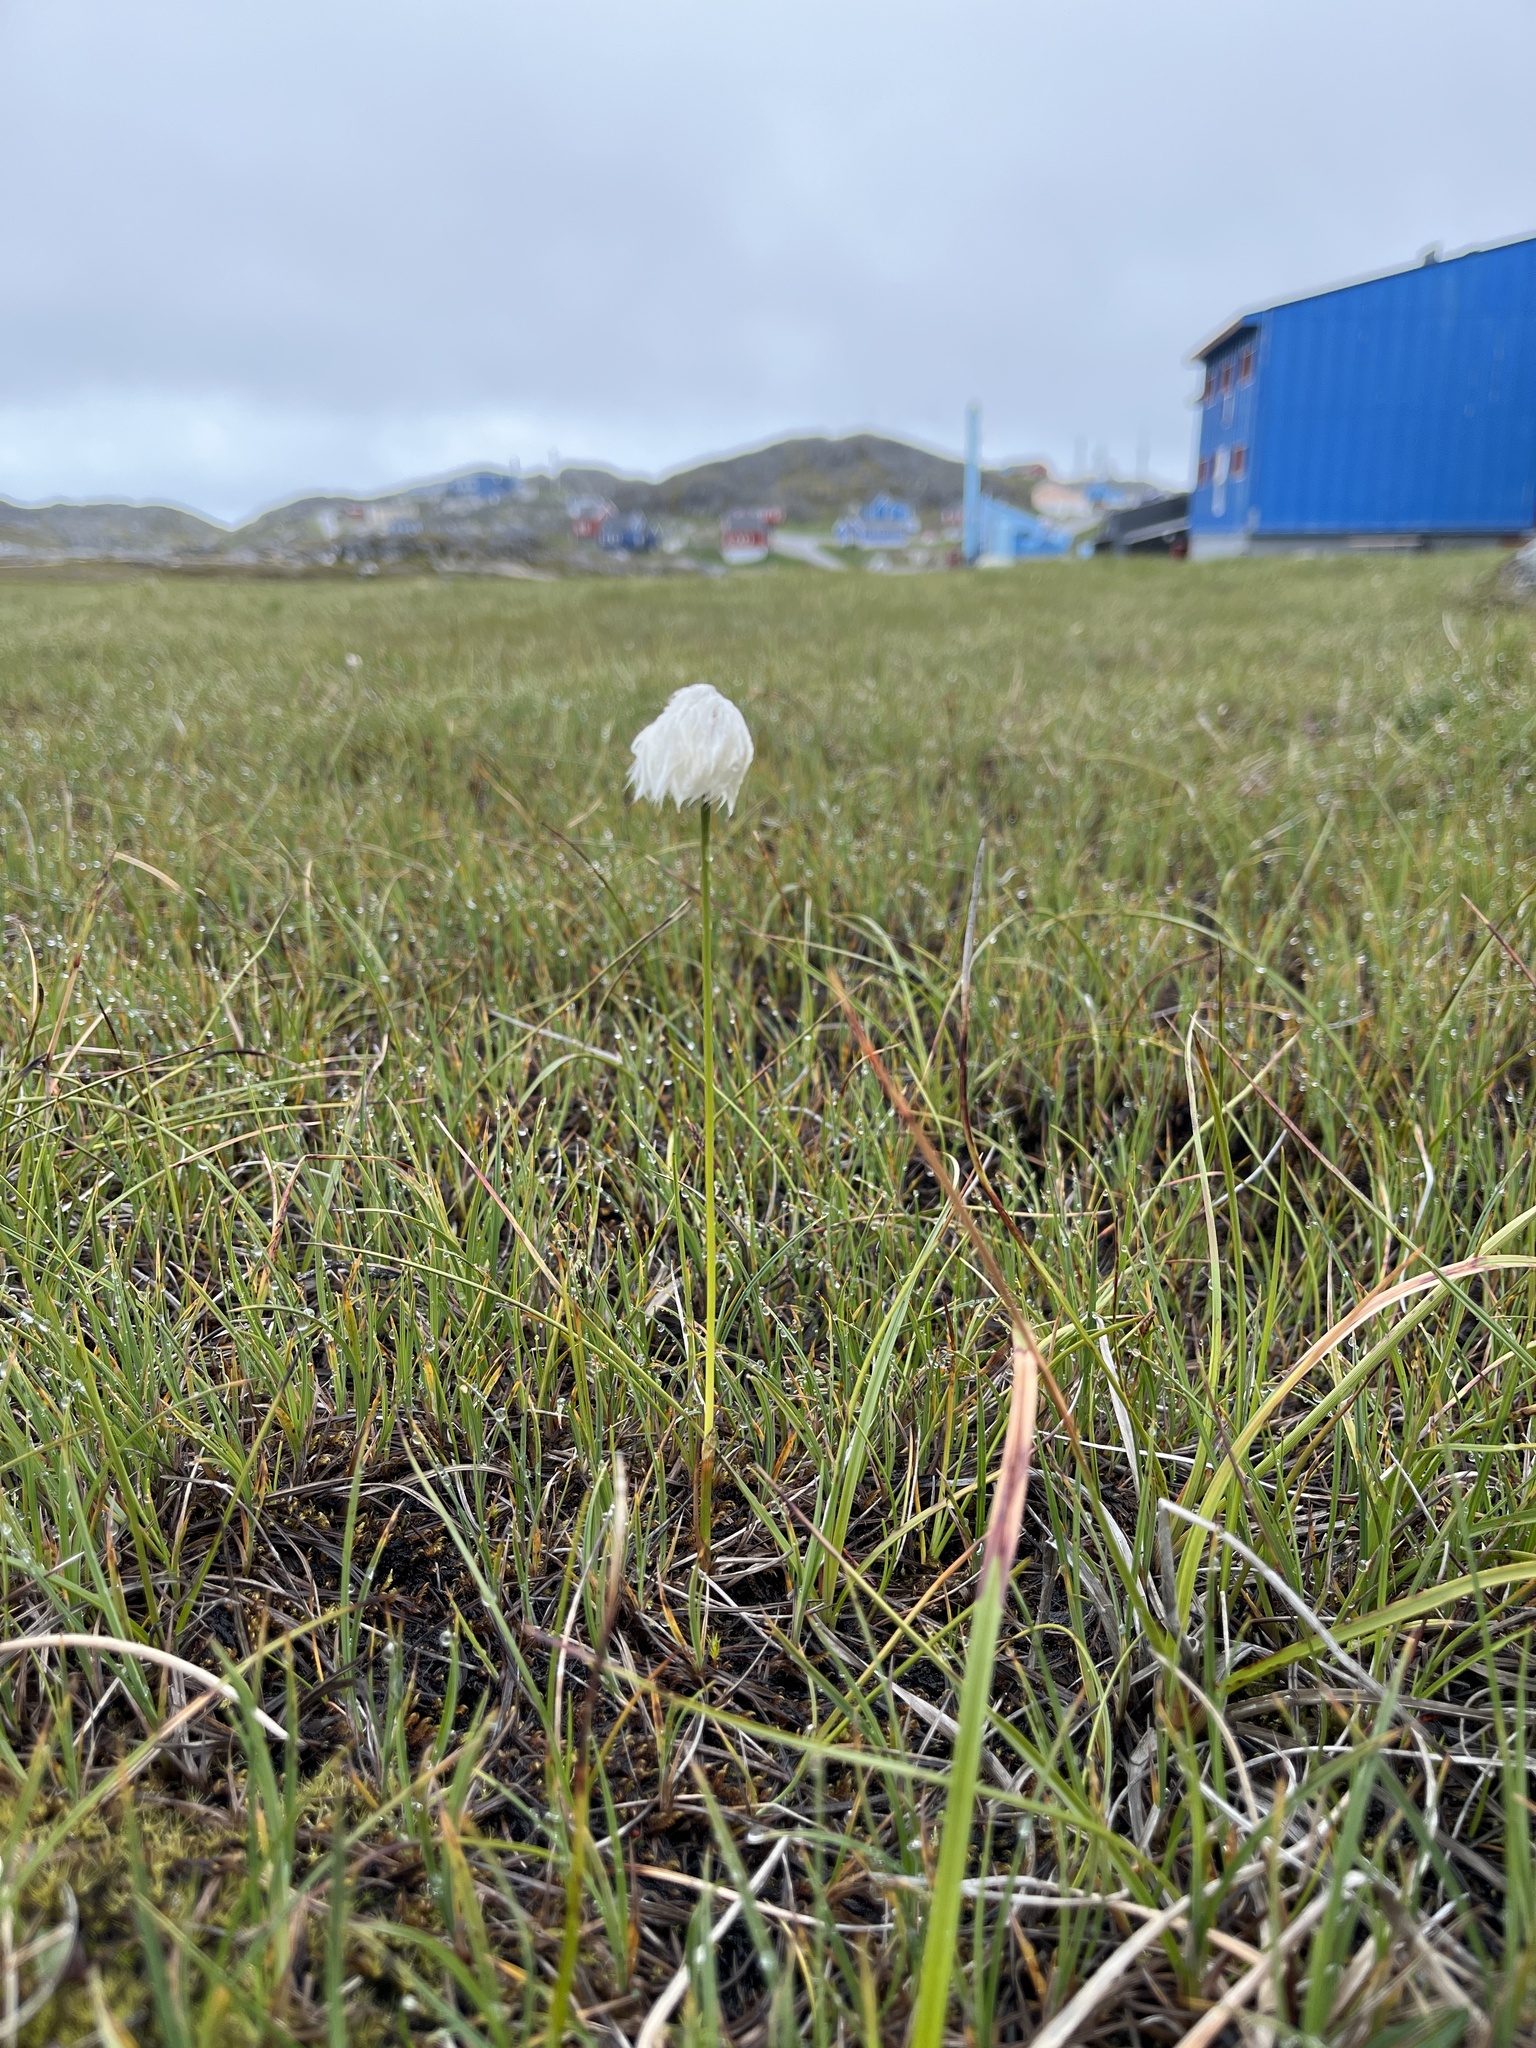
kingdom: Plantae
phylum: Tracheophyta
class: Liliopsida
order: Poales
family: Cyperaceae
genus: Eriophorum
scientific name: Eriophorum scheuchzeri
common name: Scheuchzer's cottongrass
